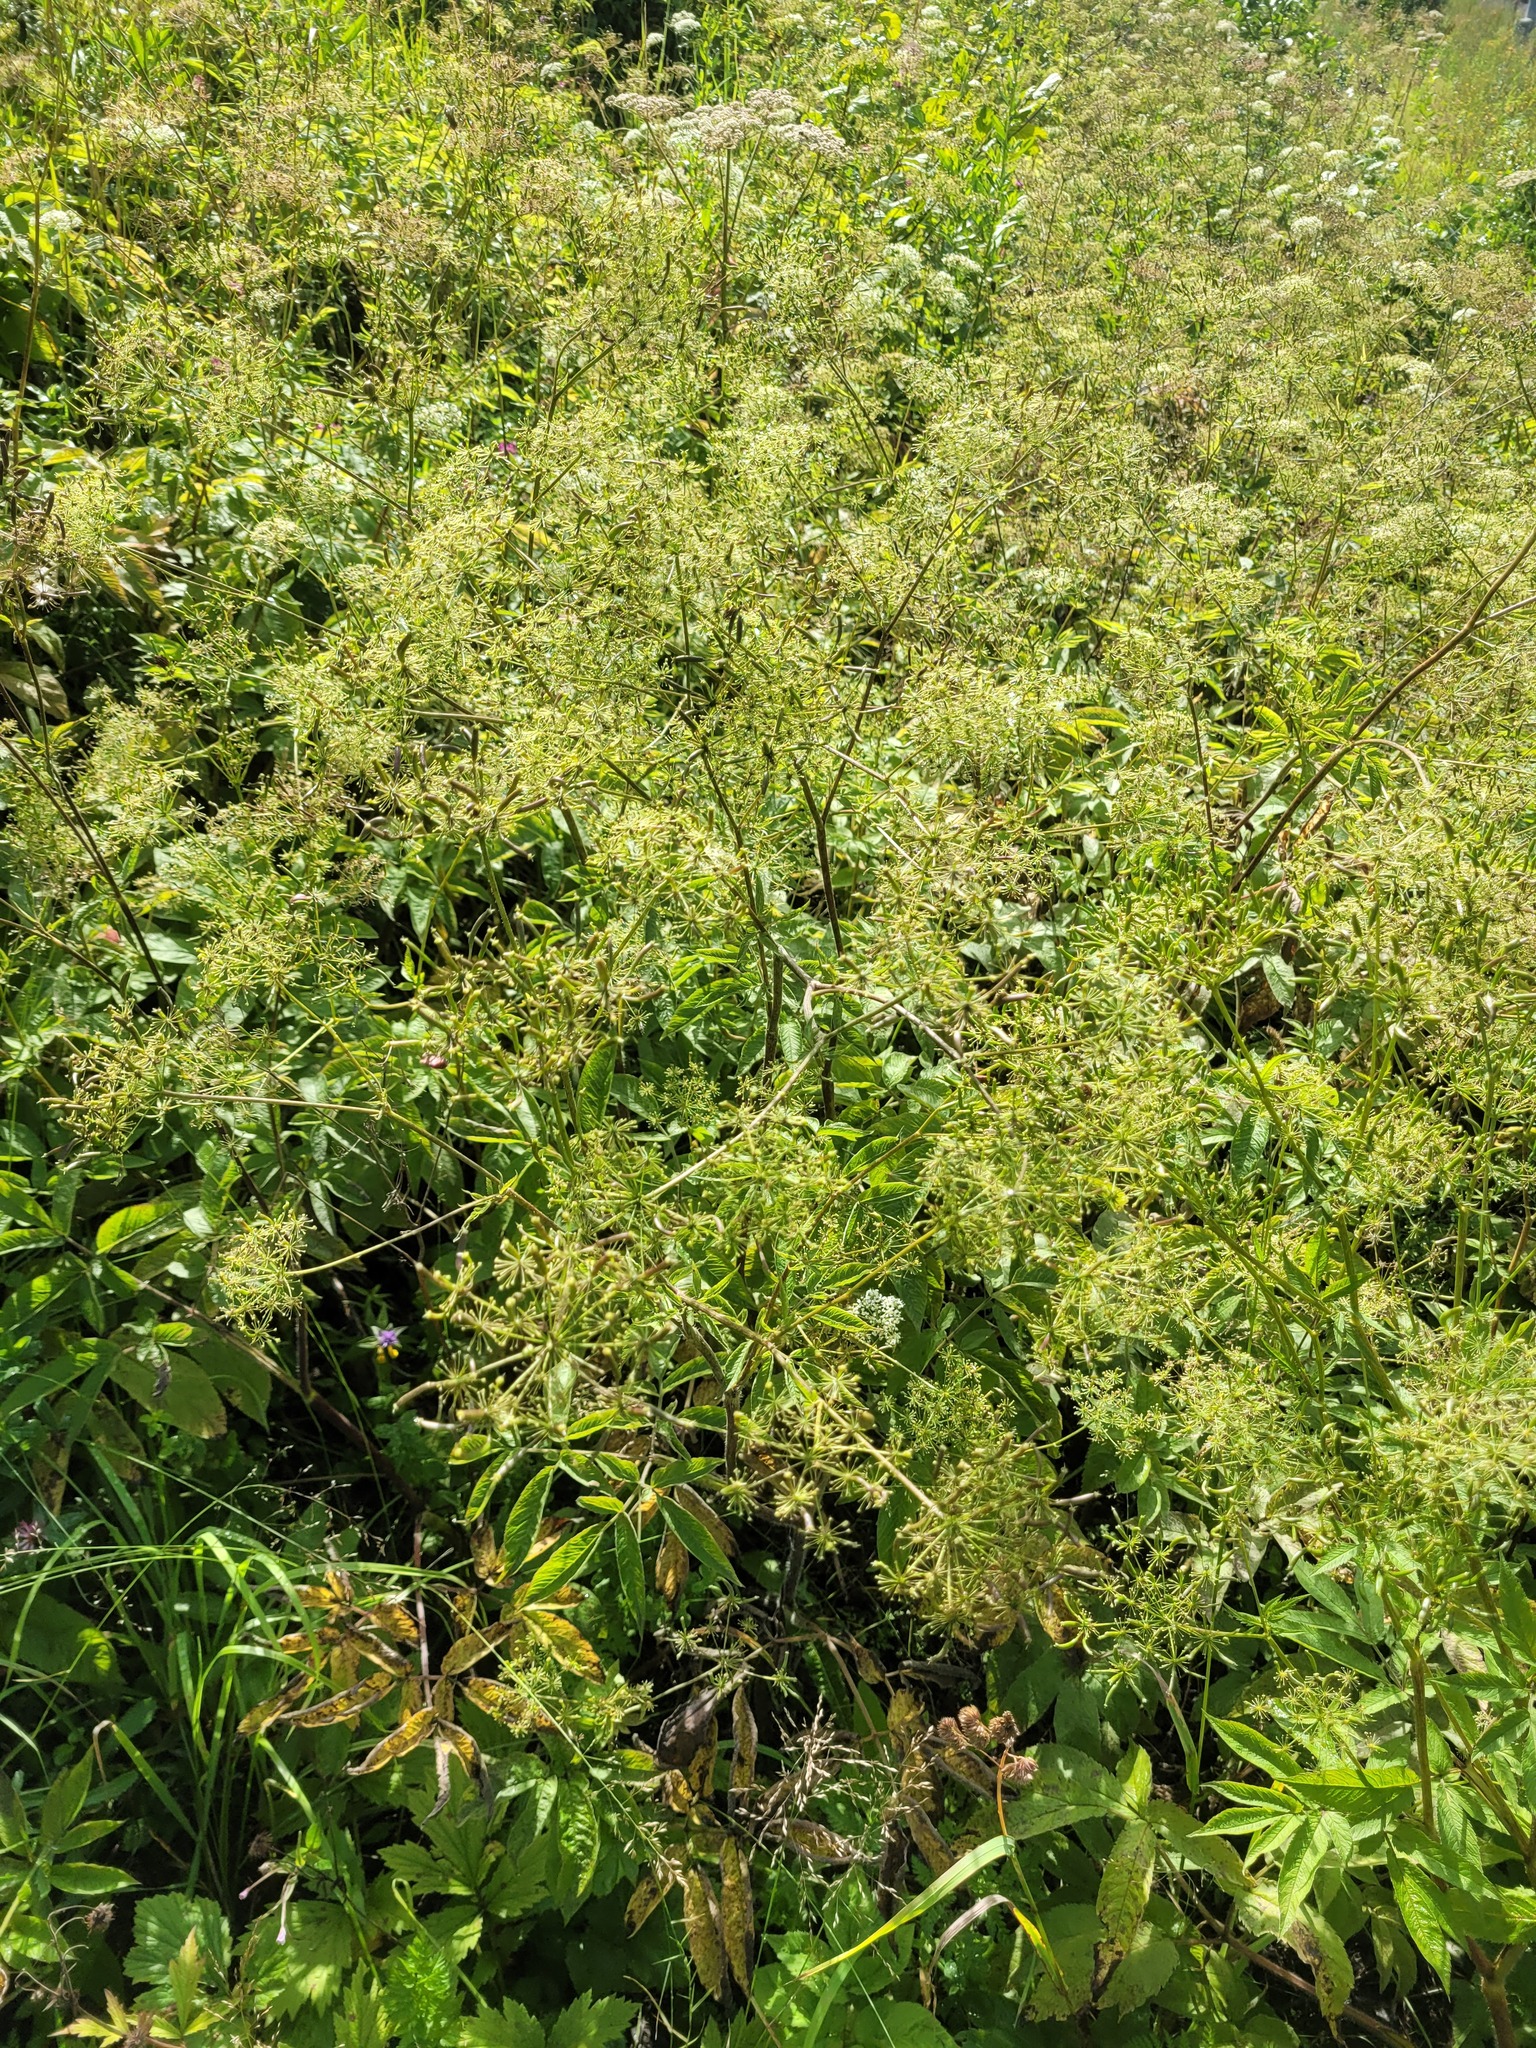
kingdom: Plantae
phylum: Tracheophyta
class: Magnoliopsida
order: Apiales
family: Apiaceae
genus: Chaerophyllum
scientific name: Chaerophyllum aromaticum
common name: Broadleaf chervil
